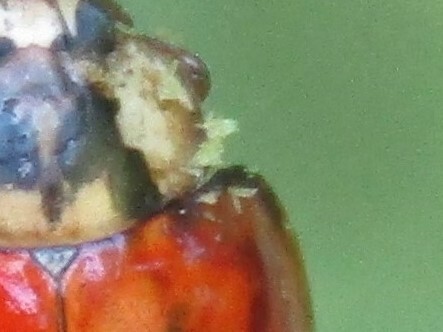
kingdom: Fungi
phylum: Ascomycota
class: Laboulbeniomycetes
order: Laboulbeniales
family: Laboulbeniaceae
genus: Hesperomyces
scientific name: Hesperomyces harmoniae
